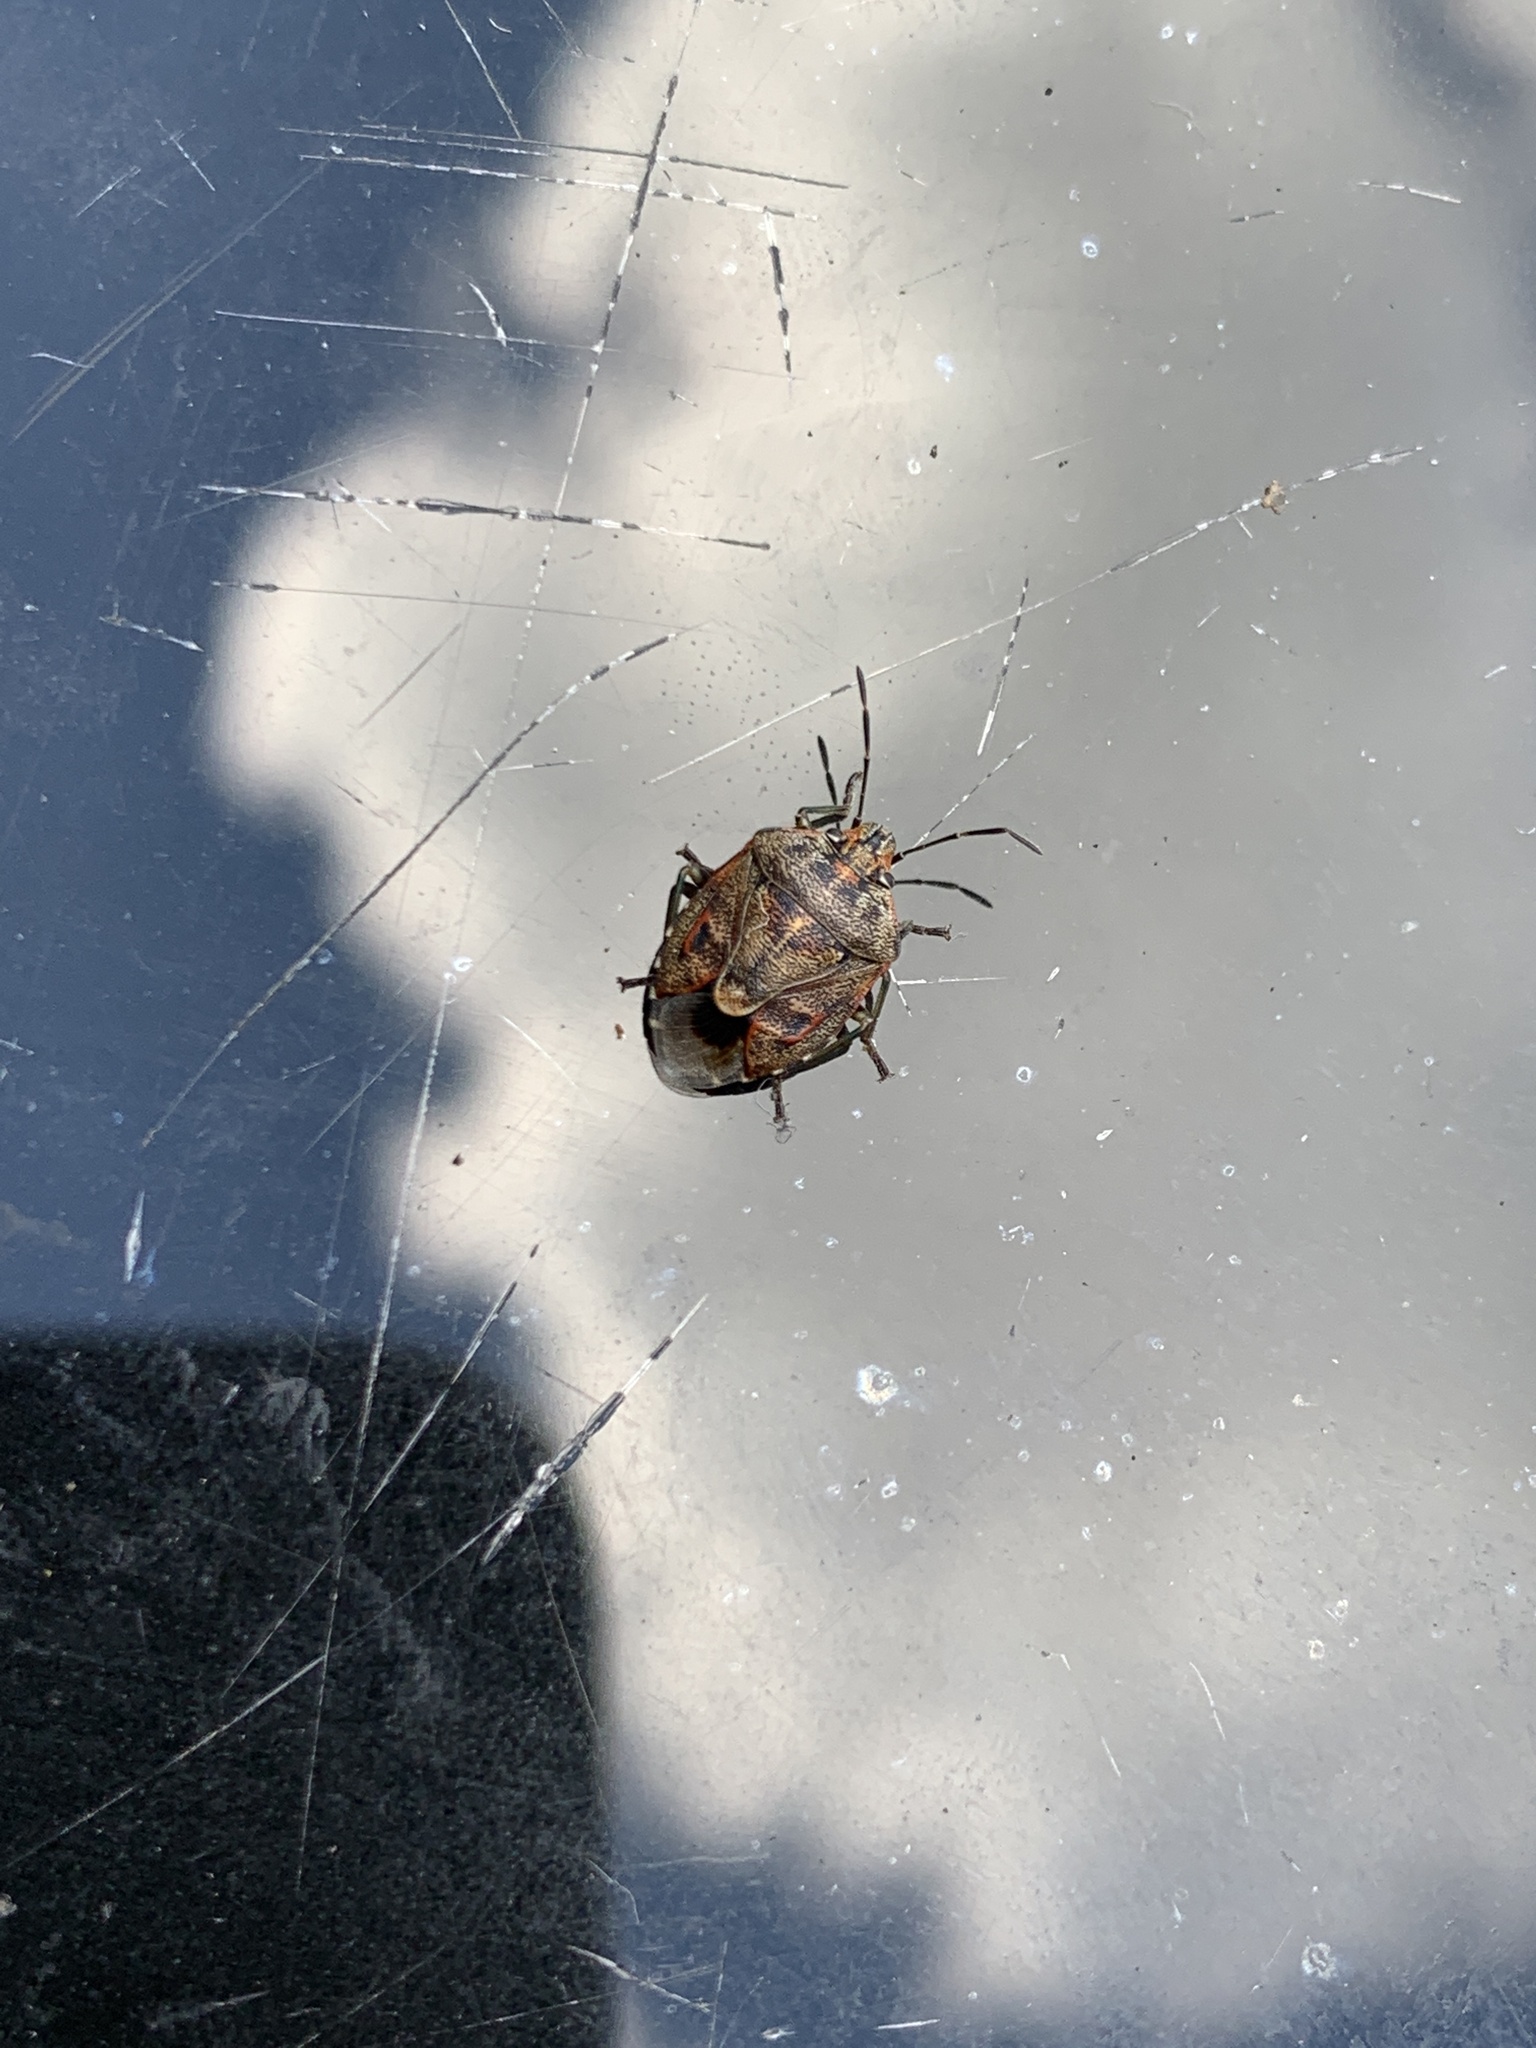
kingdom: Animalia
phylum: Arthropoda
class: Insecta
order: Hemiptera
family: Pentatomidae
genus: Holcogaster
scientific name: Holcogaster fibulata
